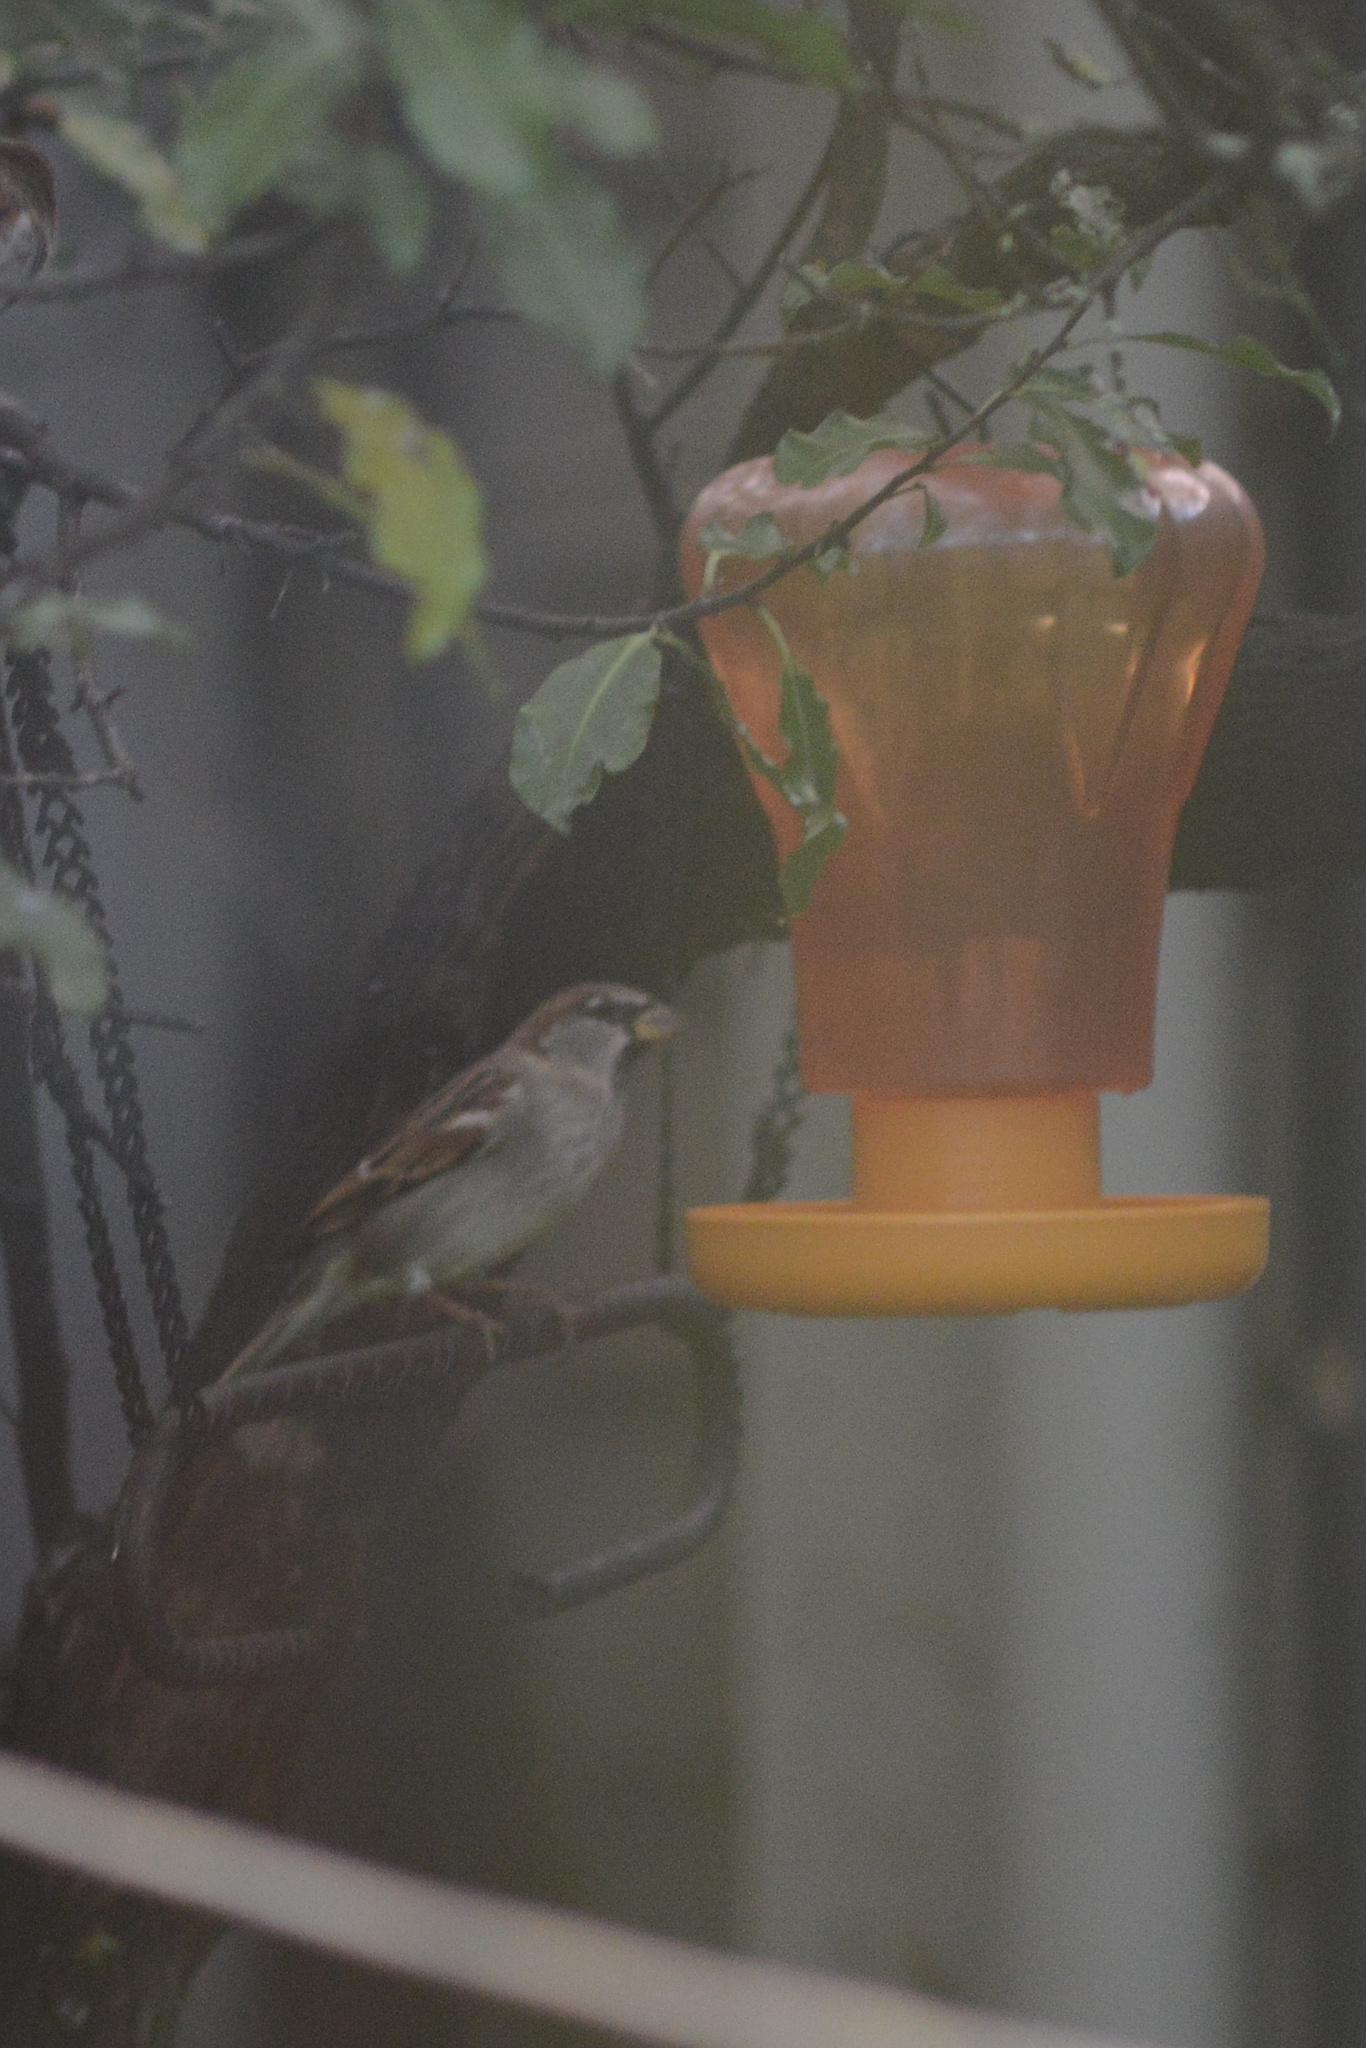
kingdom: Animalia
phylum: Chordata
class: Aves
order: Passeriformes
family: Passeridae
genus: Passer
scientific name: Passer domesticus
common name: House sparrow
